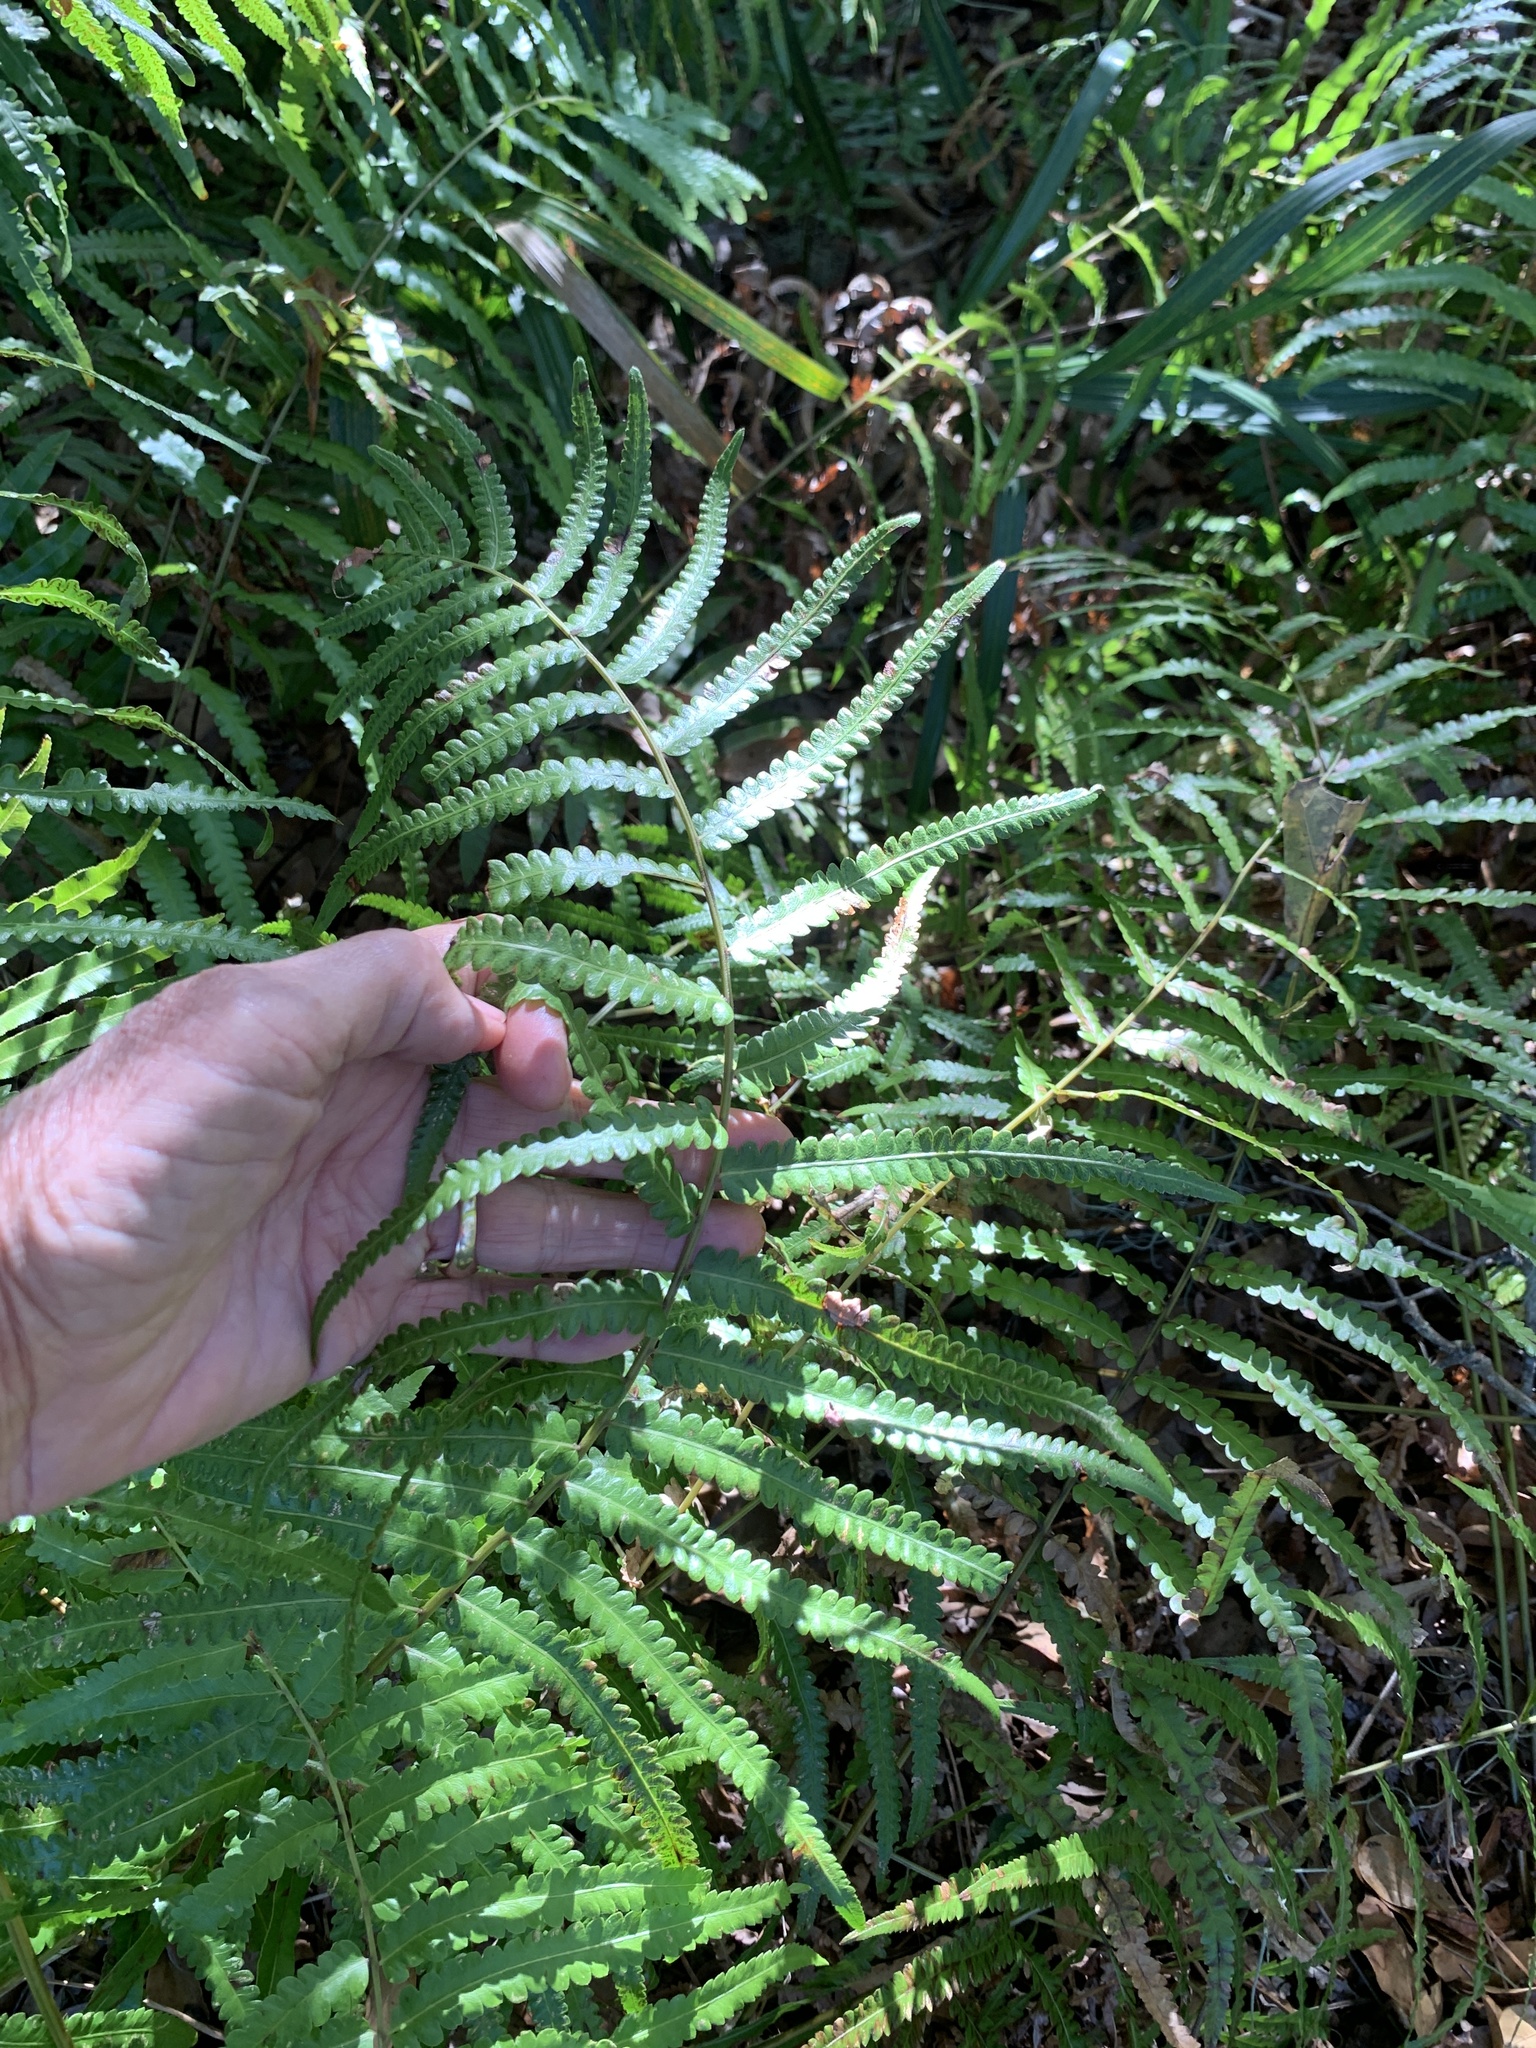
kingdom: Plantae
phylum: Tracheophyta
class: Polypodiopsida
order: Polypodiales
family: Thelypteridaceae
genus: Cyclosorus
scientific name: Cyclosorus interruptus
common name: Neke fern
